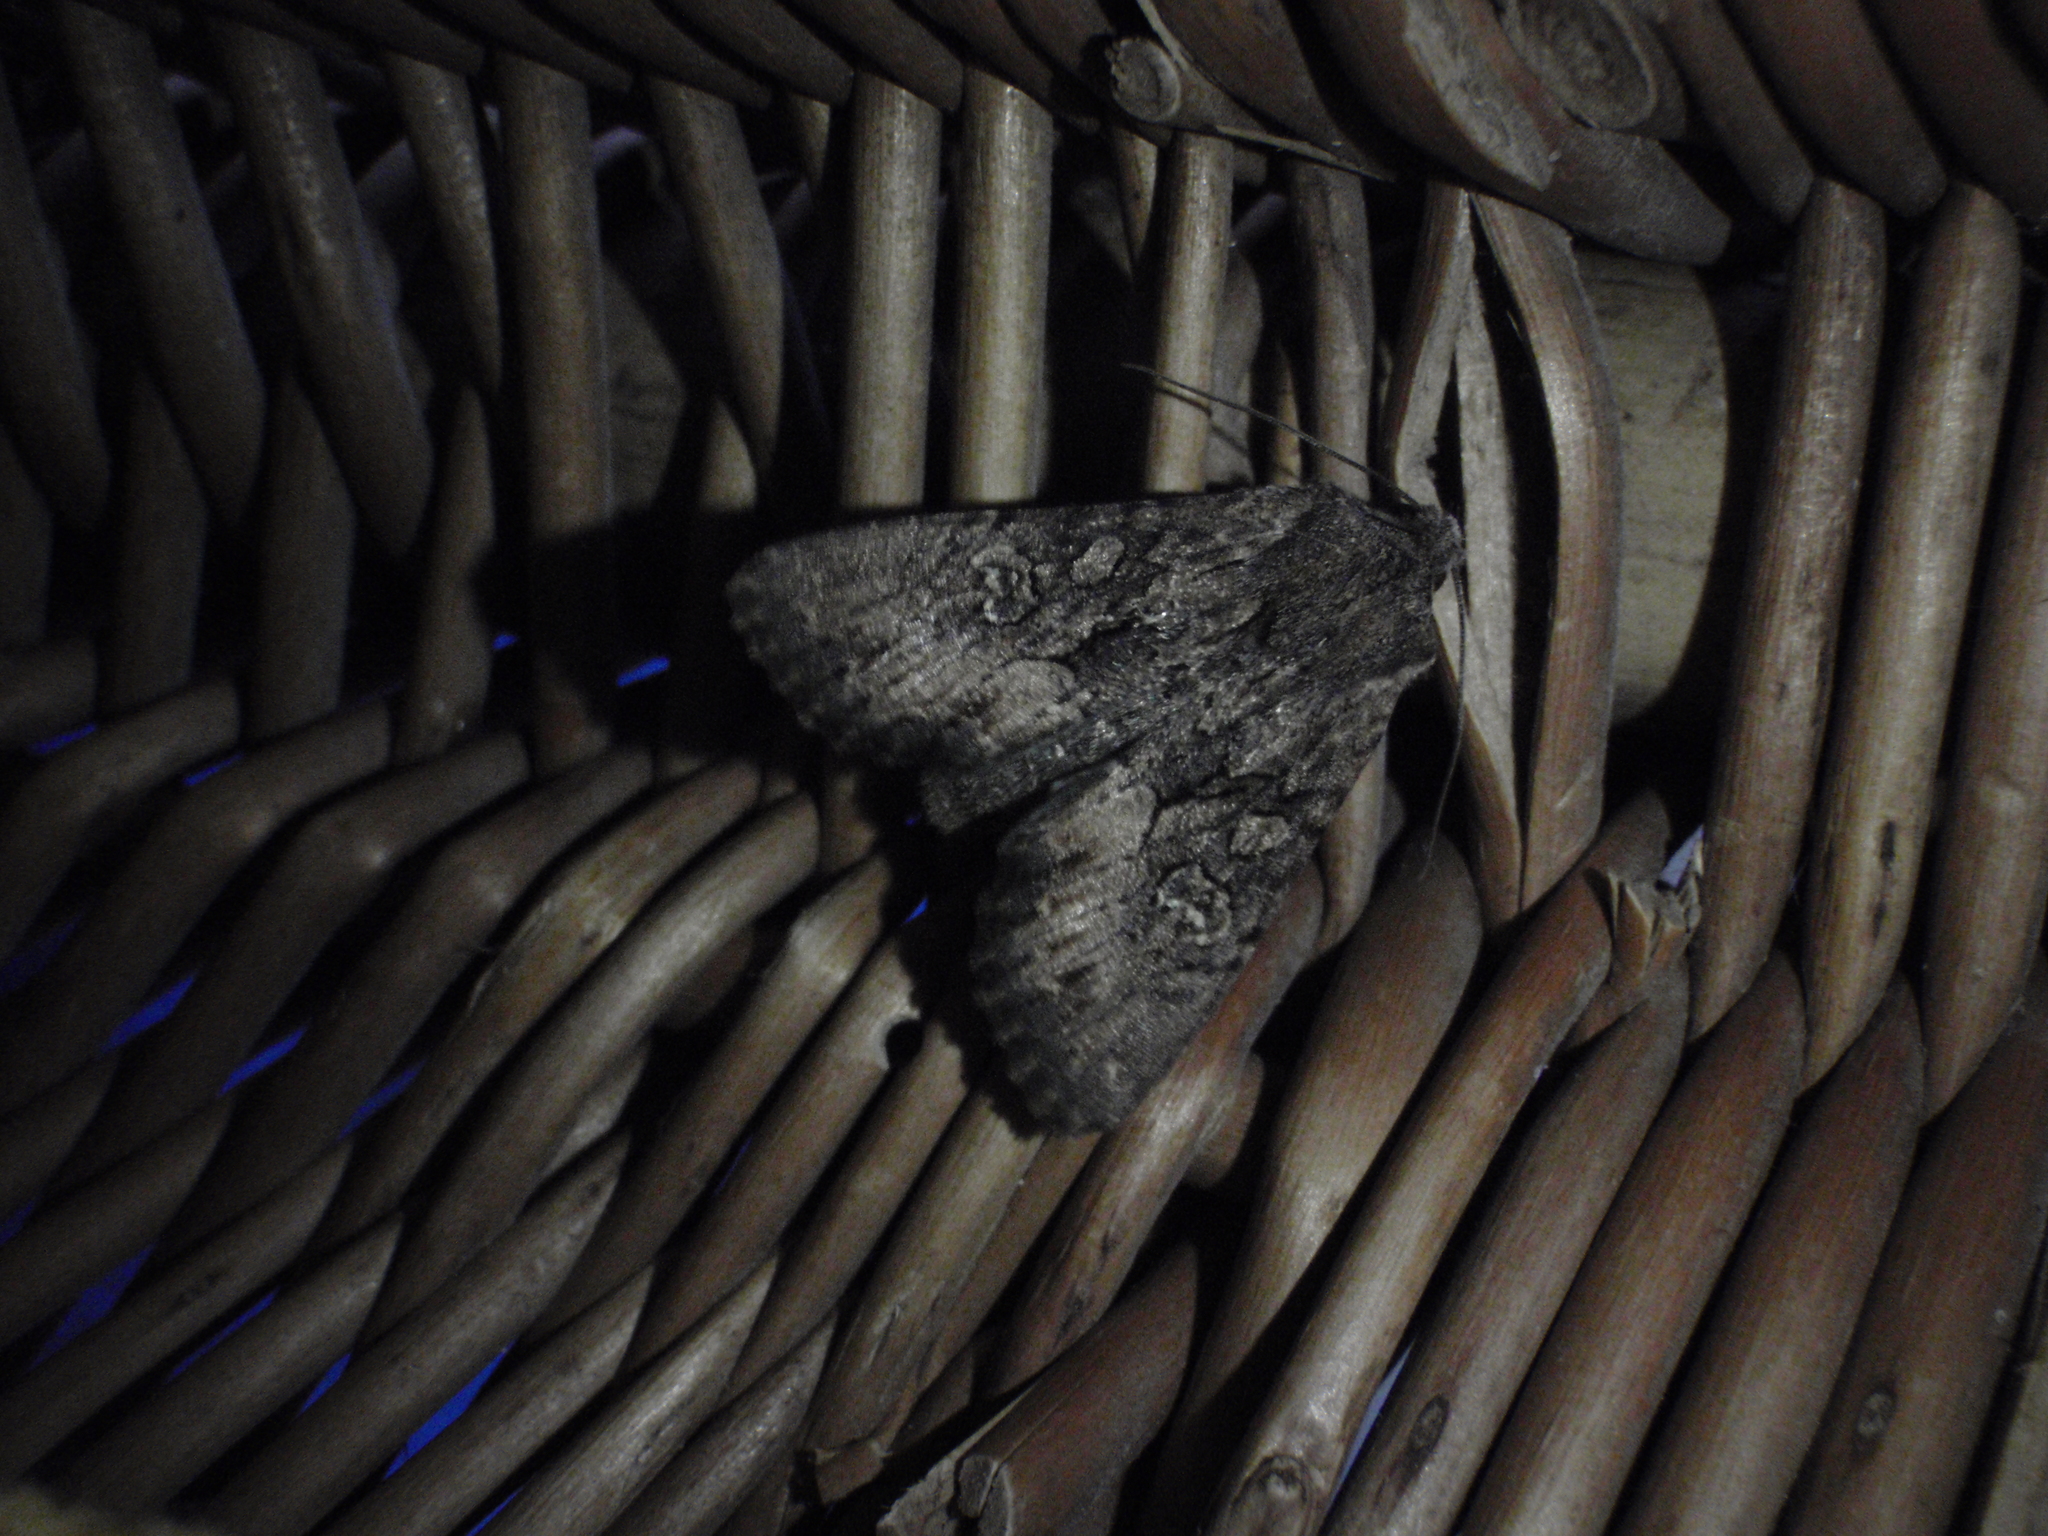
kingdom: Animalia
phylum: Arthropoda
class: Insecta
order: Lepidoptera
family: Noctuidae
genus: Mniotype
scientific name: Mniotype solieri
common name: Bedrule brocade
